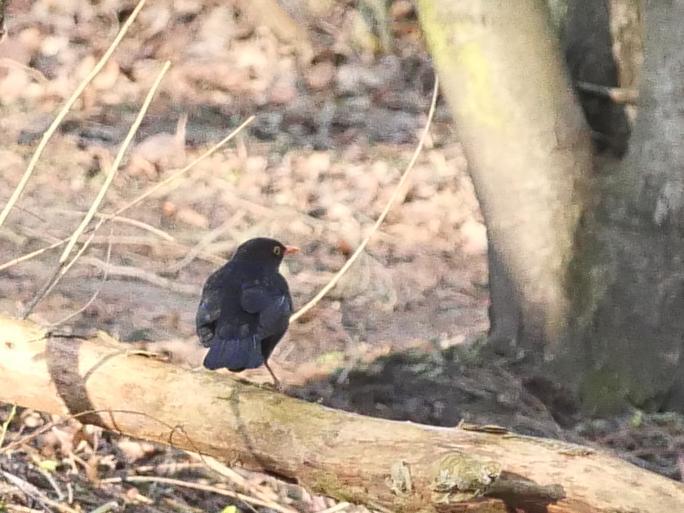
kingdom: Animalia
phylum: Chordata
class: Aves
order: Passeriformes
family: Turdidae
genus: Turdus
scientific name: Turdus merula
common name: Common blackbird
